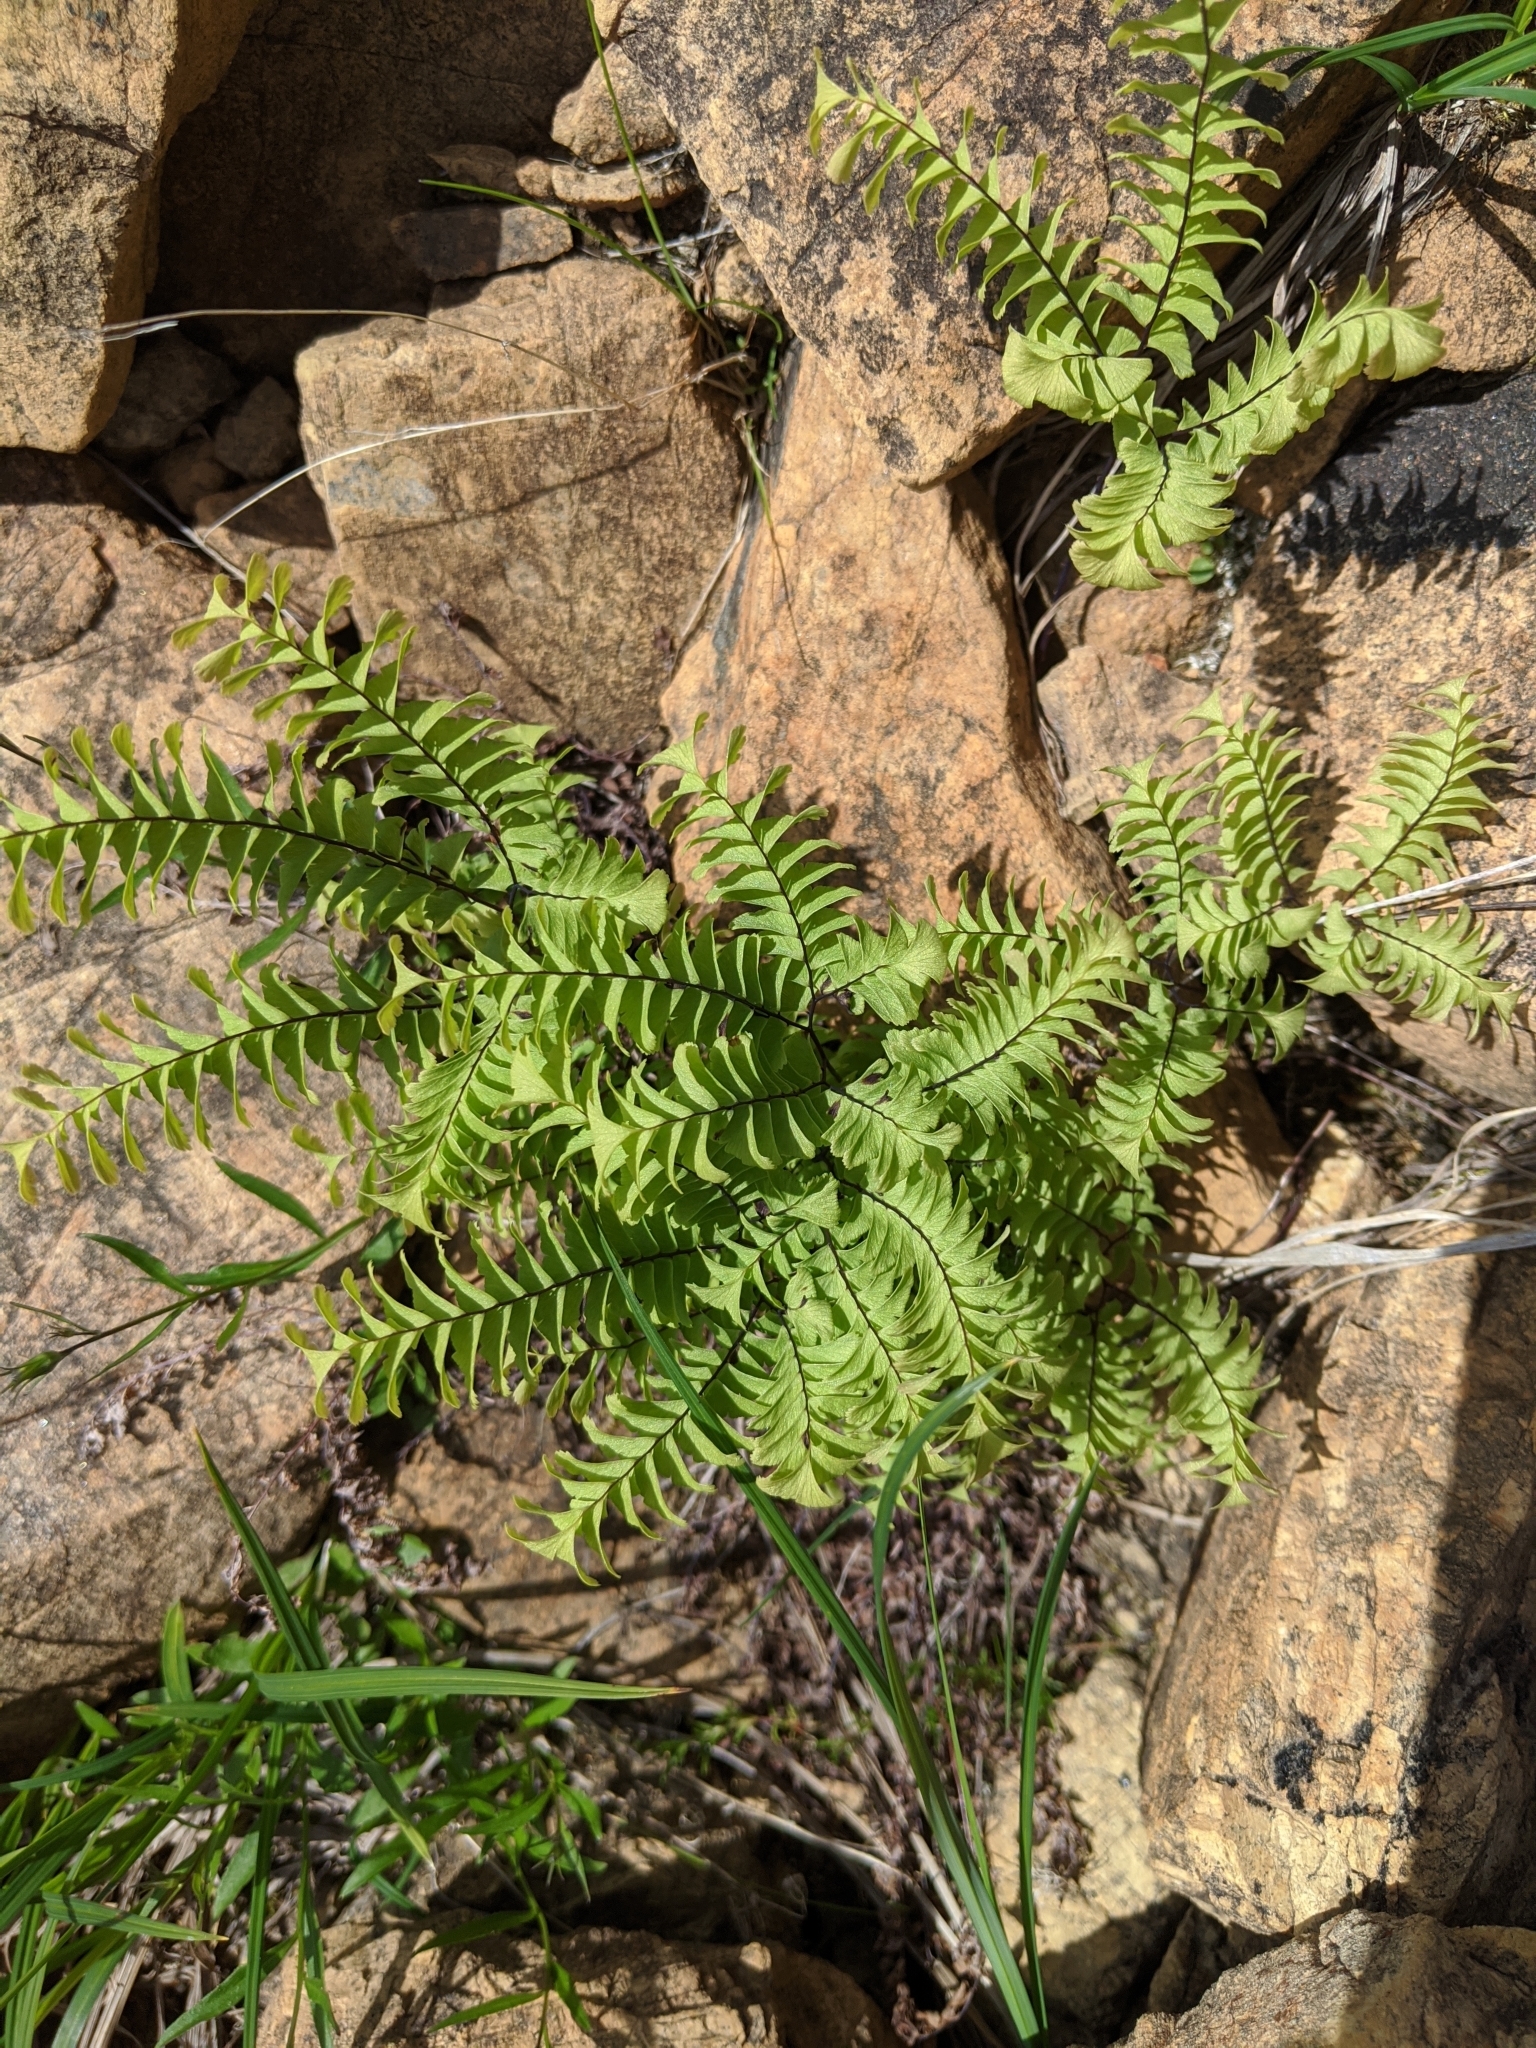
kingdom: Plantae
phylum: Tracheophyta
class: Polypodiopsida
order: Polypodiales
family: Pteridaceae
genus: Adiantum
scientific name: Adiantum aleuticum
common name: Aleutian maidenhair fern
